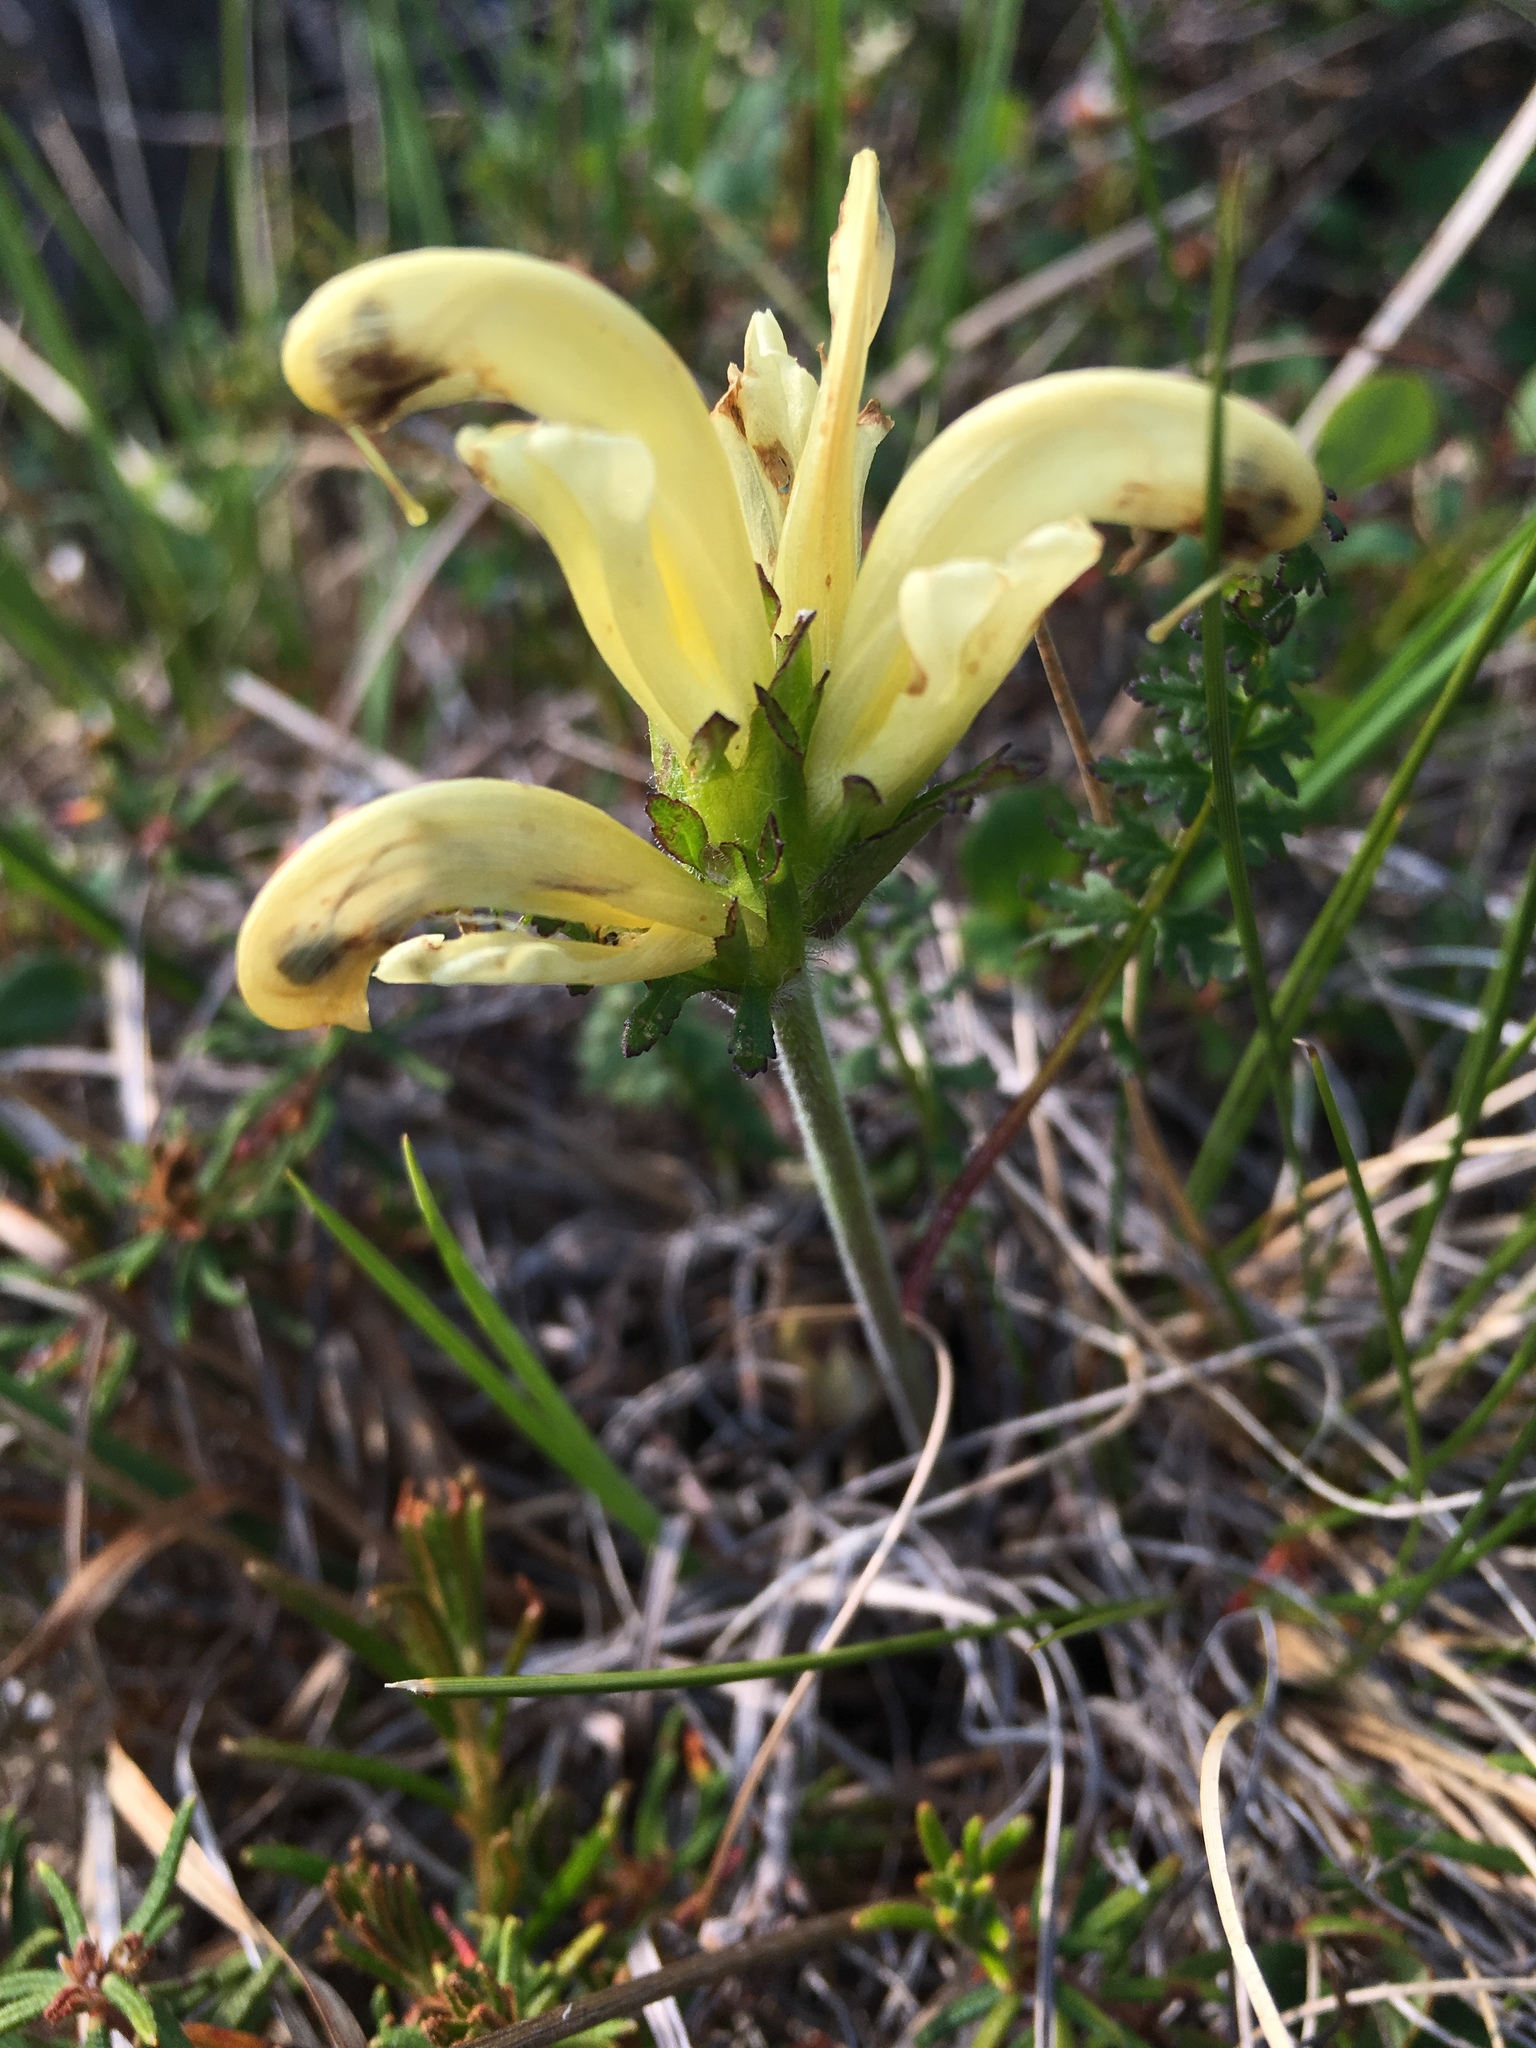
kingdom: Plantae
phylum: Tracheophyta
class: Magnoliopsida
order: Lamiales
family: Orobanchaceae
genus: Pedicularis
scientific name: Pedicularis capitata
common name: Capitate lousewort
